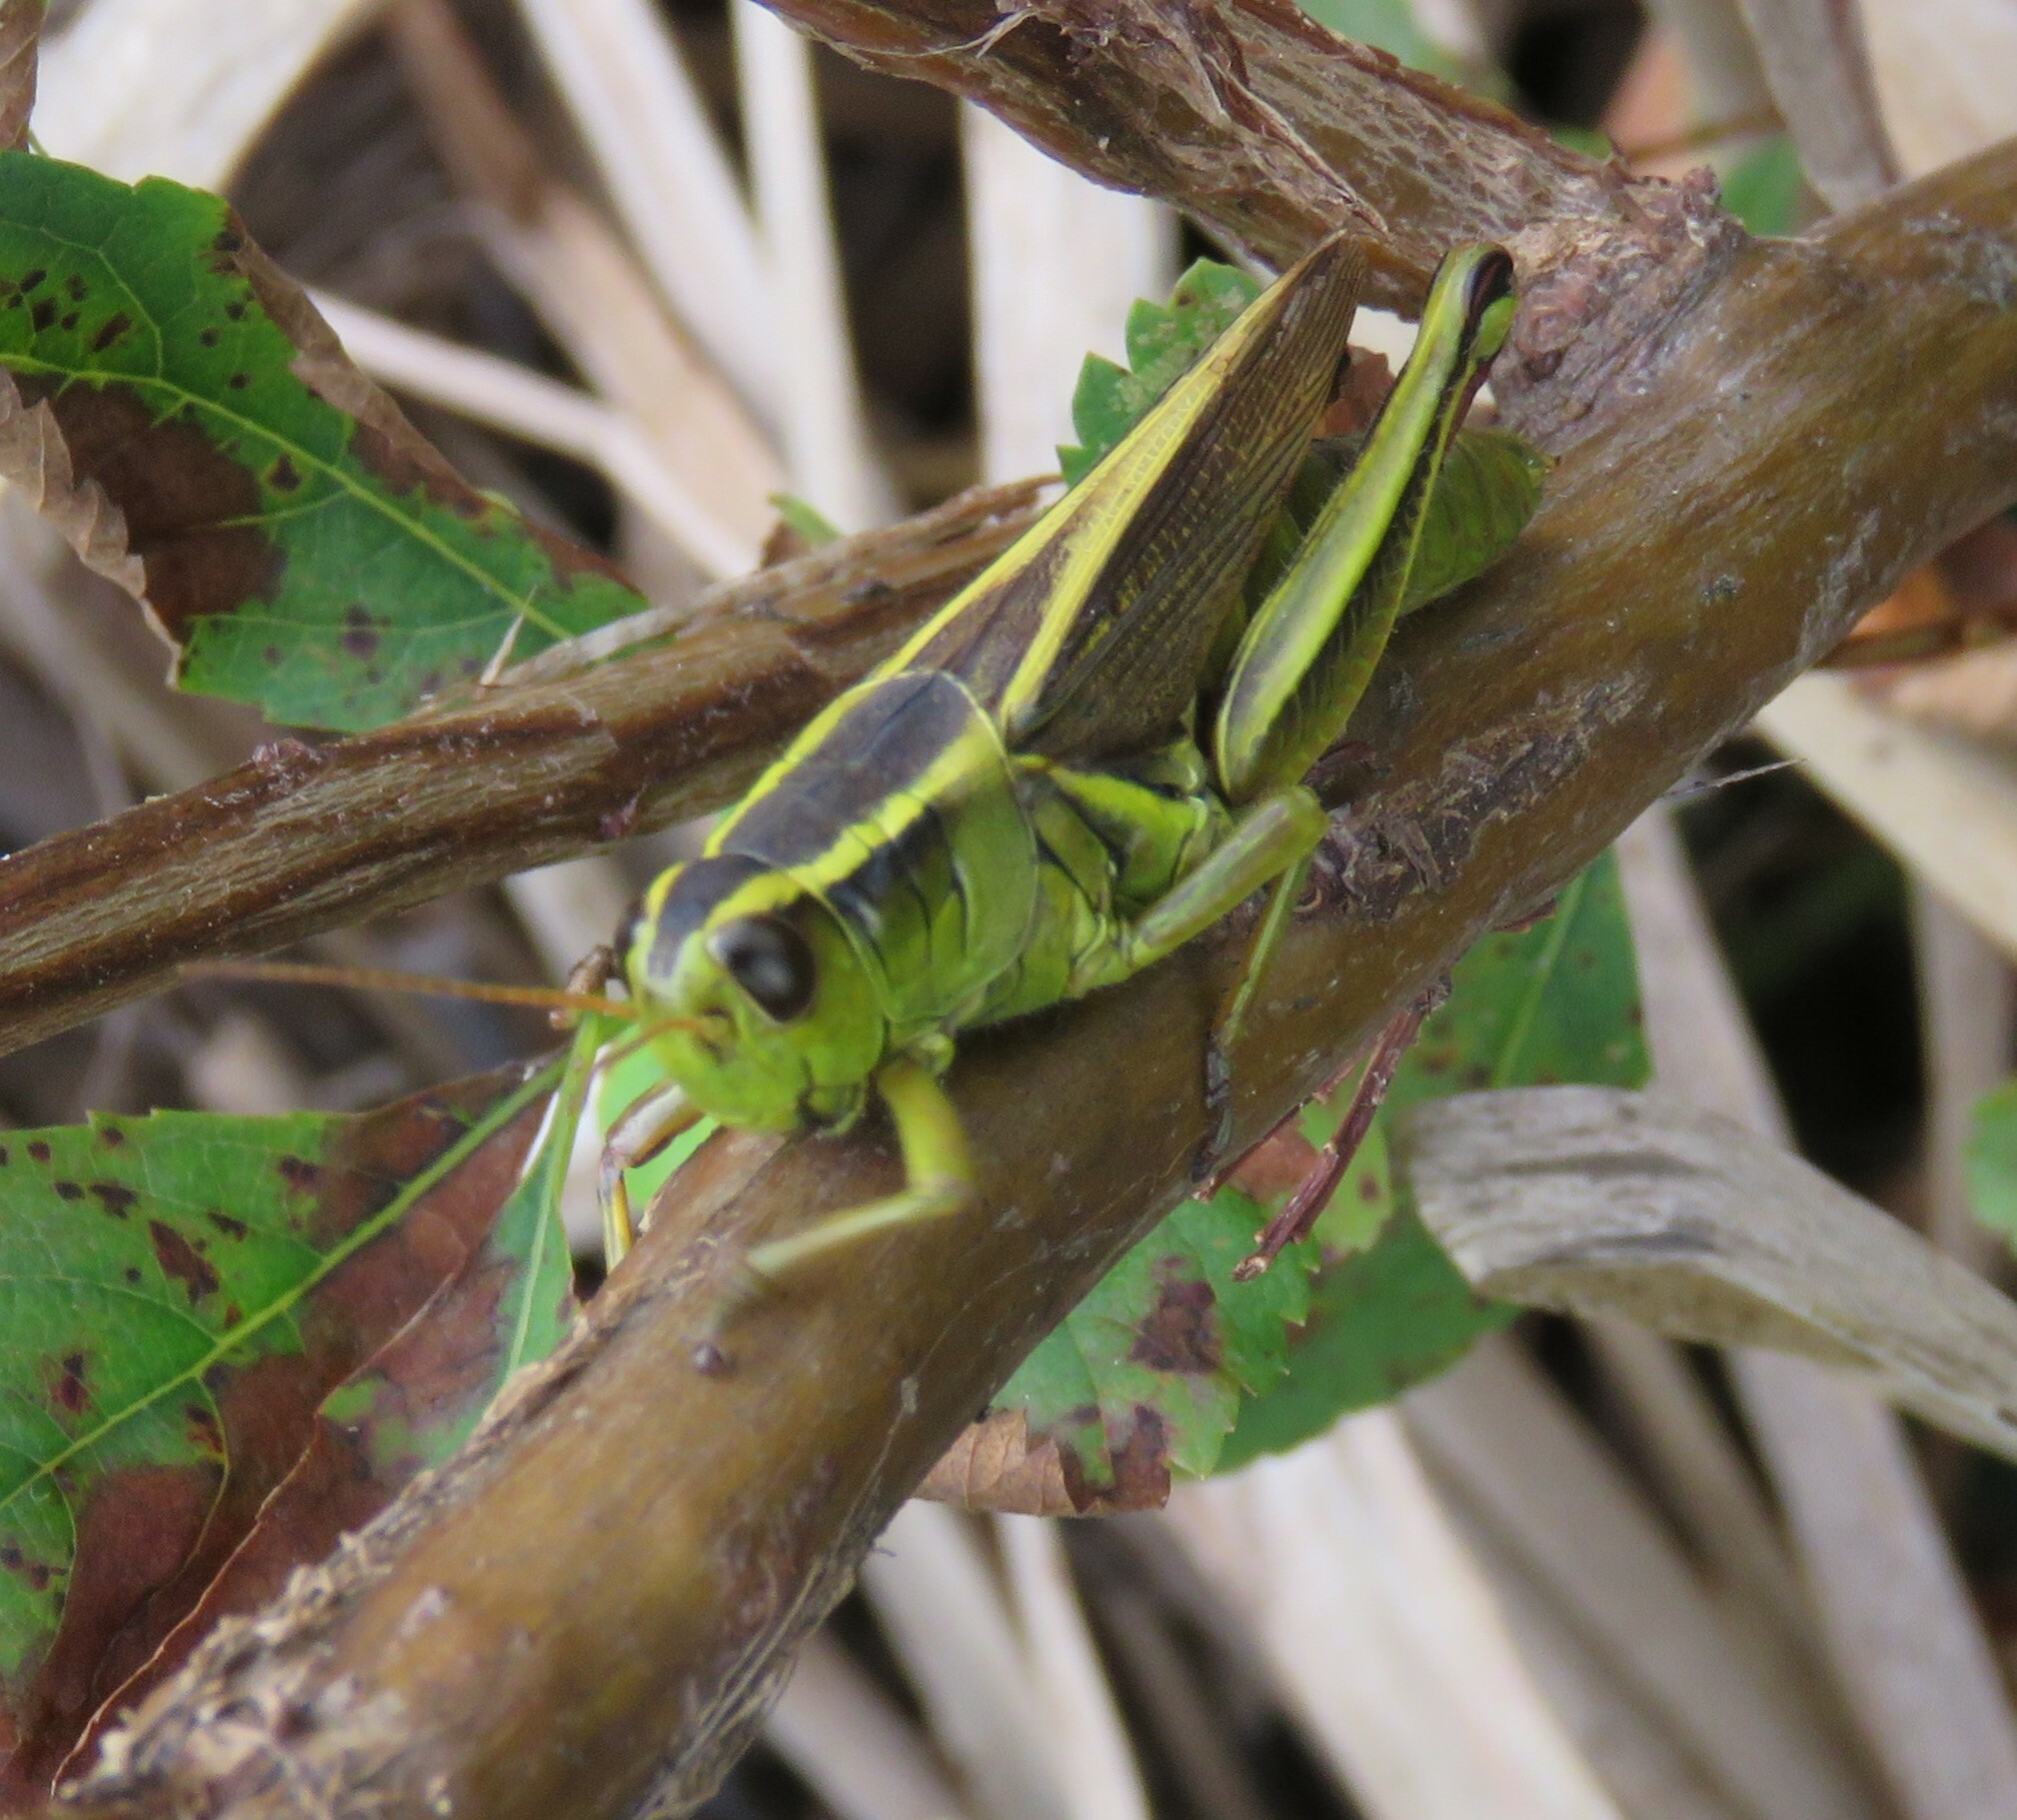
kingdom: Animalia
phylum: Arthropoda
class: Insecta
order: Orthoptera
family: Acrididae
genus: Melanoplus
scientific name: Melanoplus bivittatus
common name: Two-striped grasshopper
